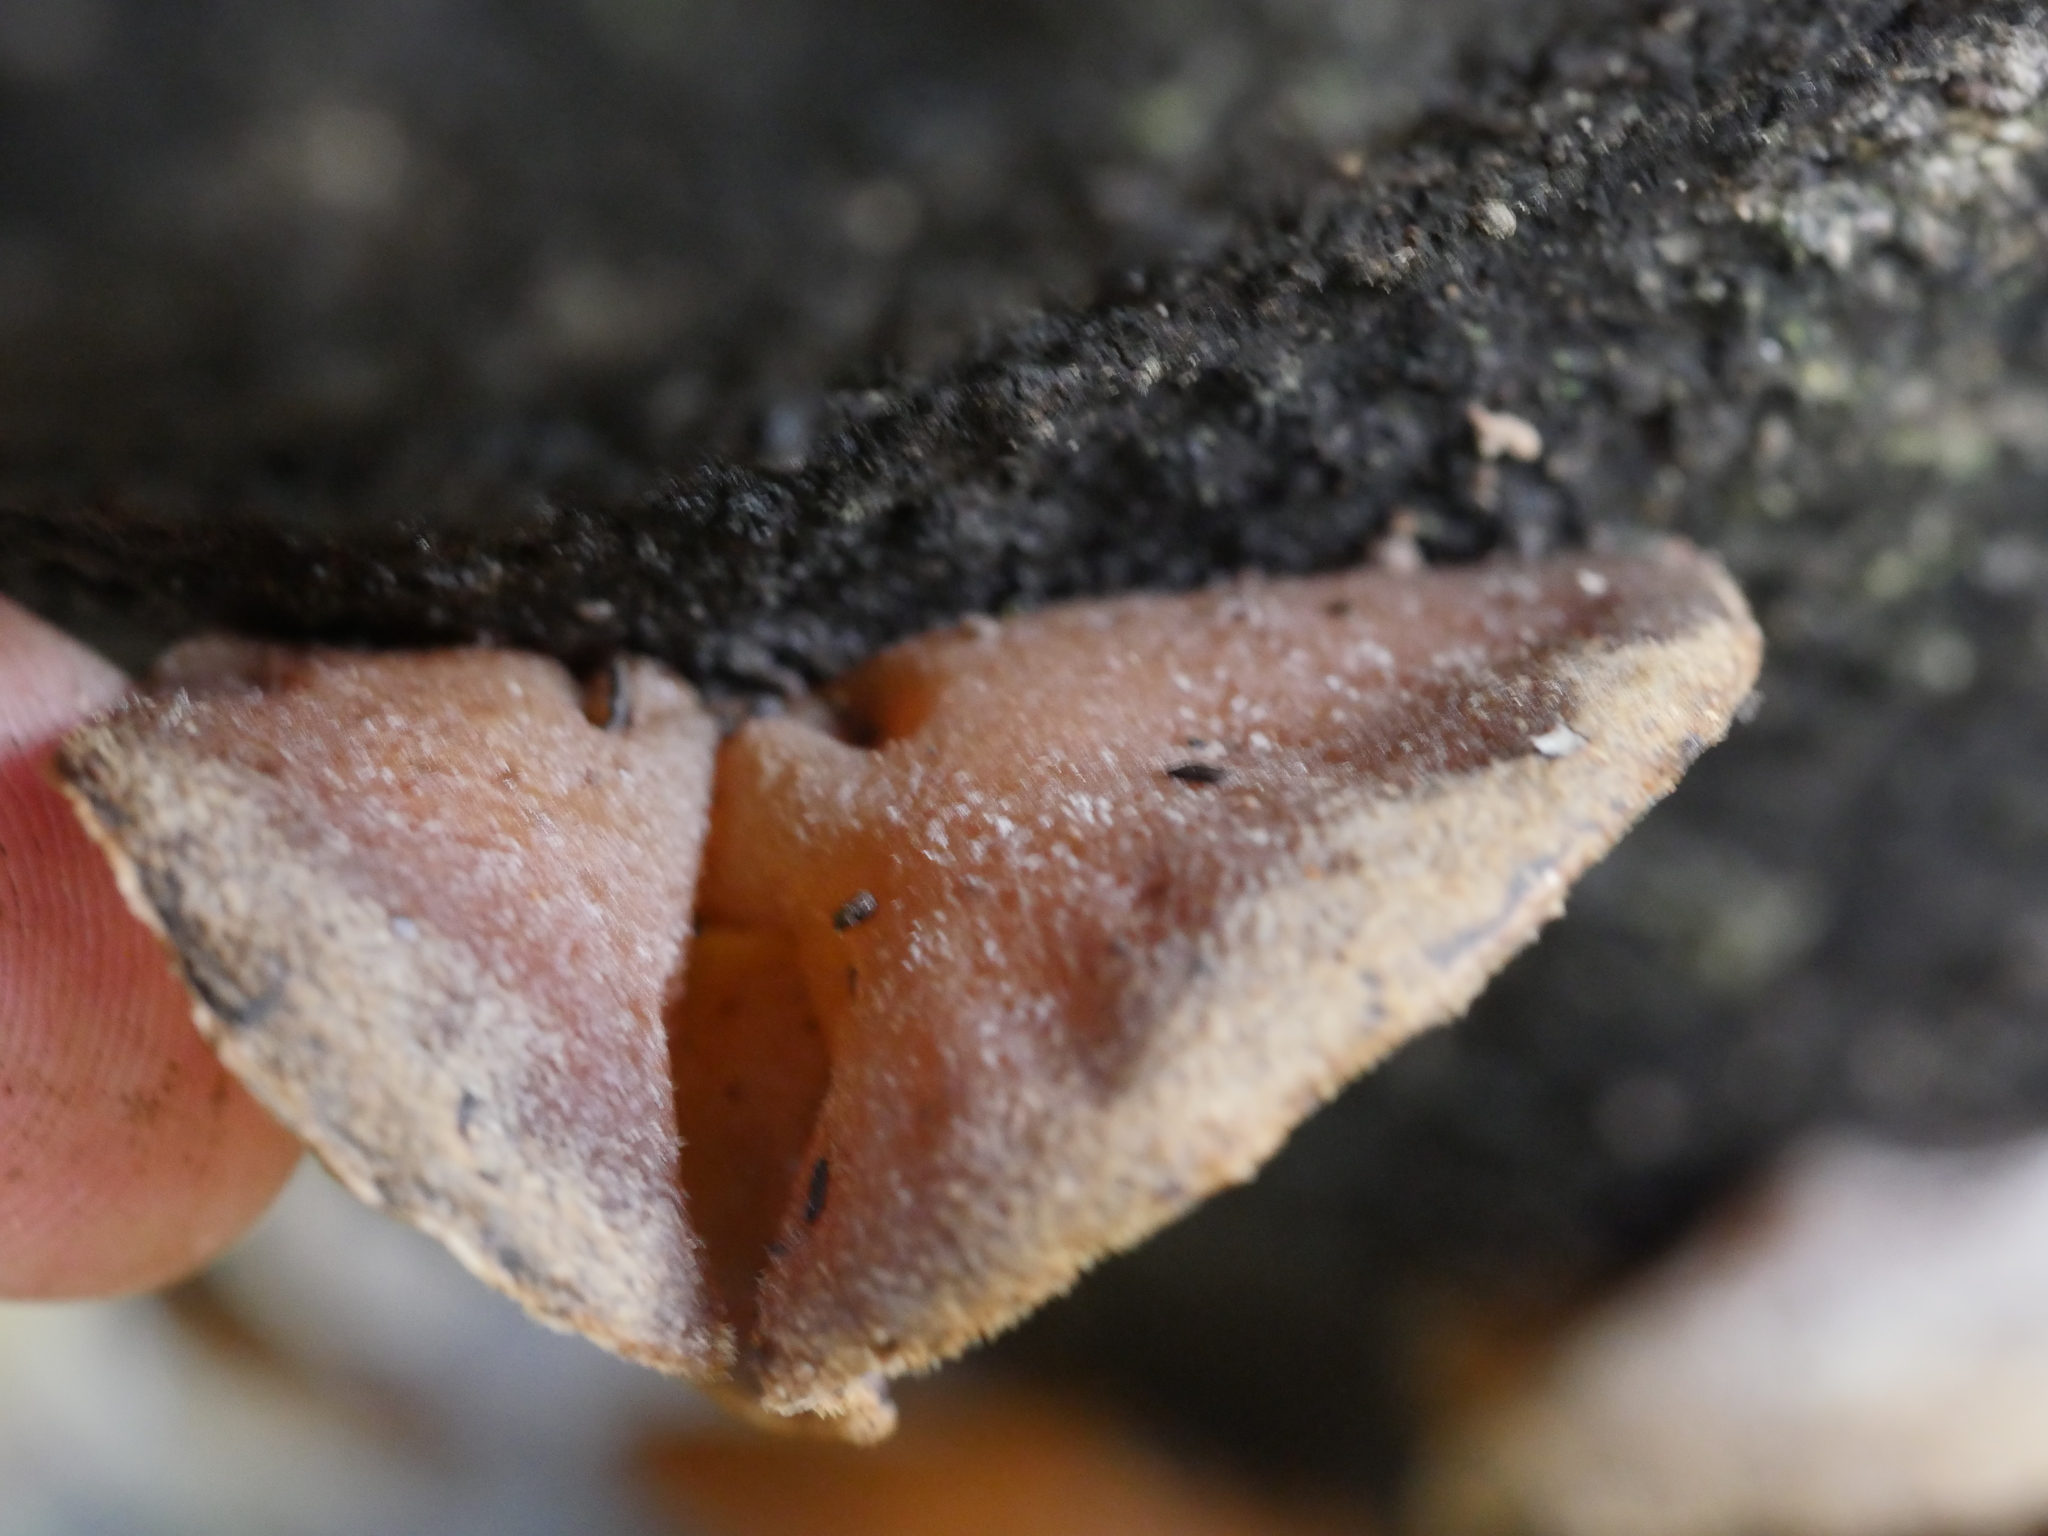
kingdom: Fungi
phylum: Basidiomycota
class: Agaricomycetes
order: Auriculariales
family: Auriculariaceae
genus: Auricularia
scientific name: Auricularia cornea
